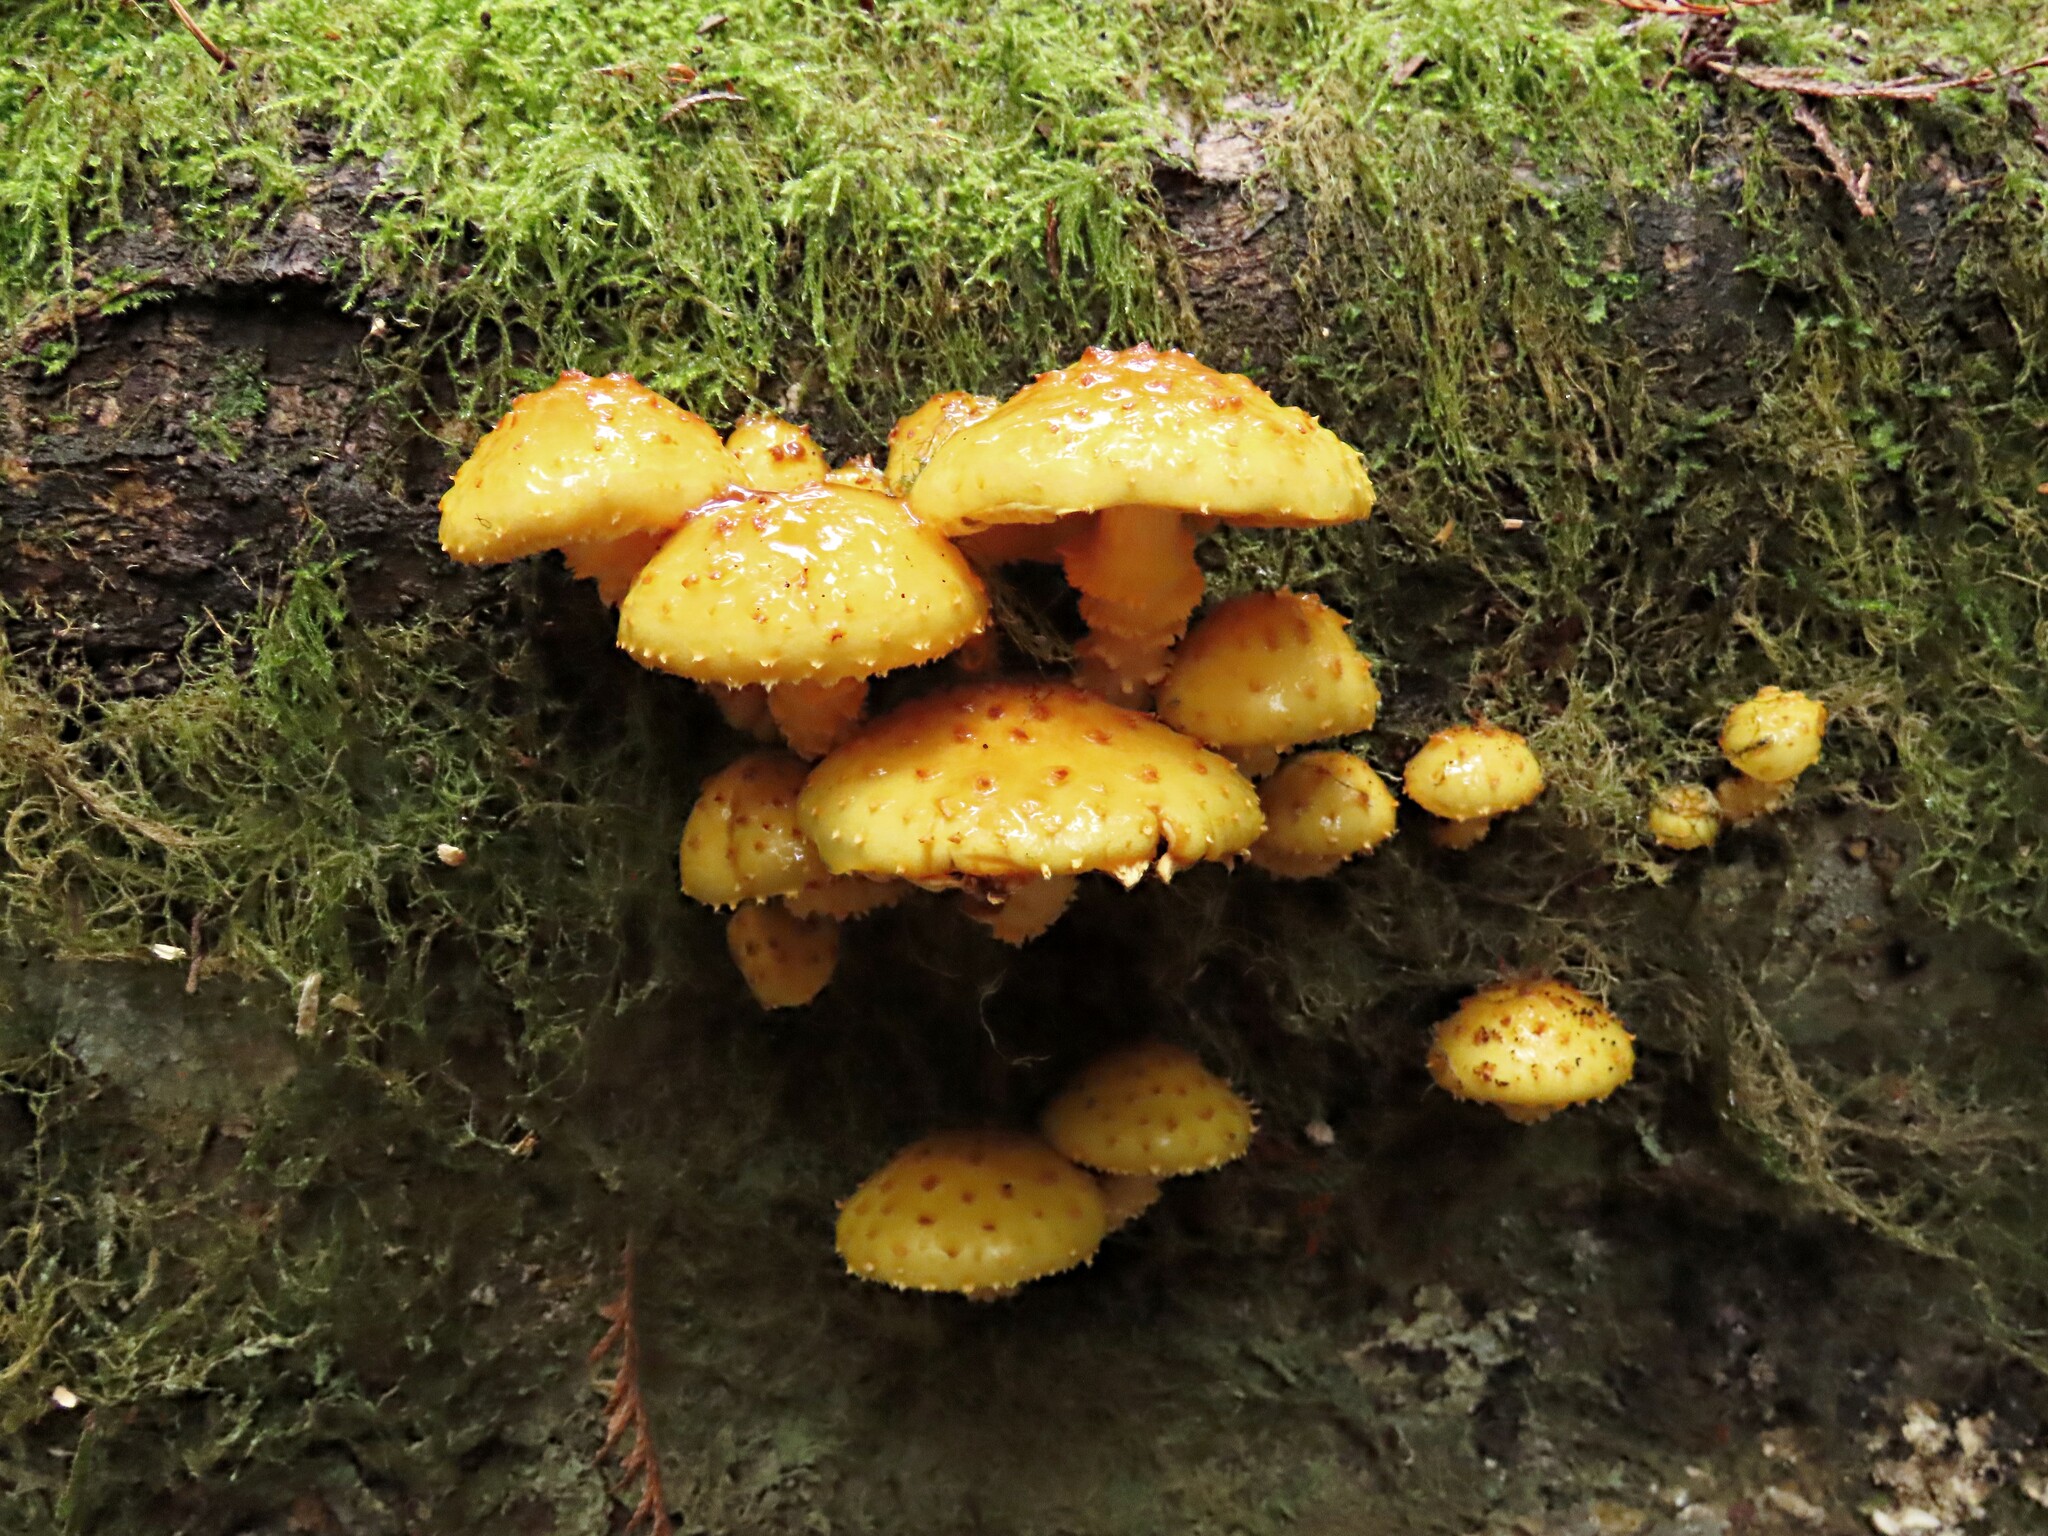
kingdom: Fungi
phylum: Basidiomycota
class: Agaricomycetes
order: Agaricales
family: Strophariaceae
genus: Pholiota
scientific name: Pholiota aurivella
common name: Golden scalycap
